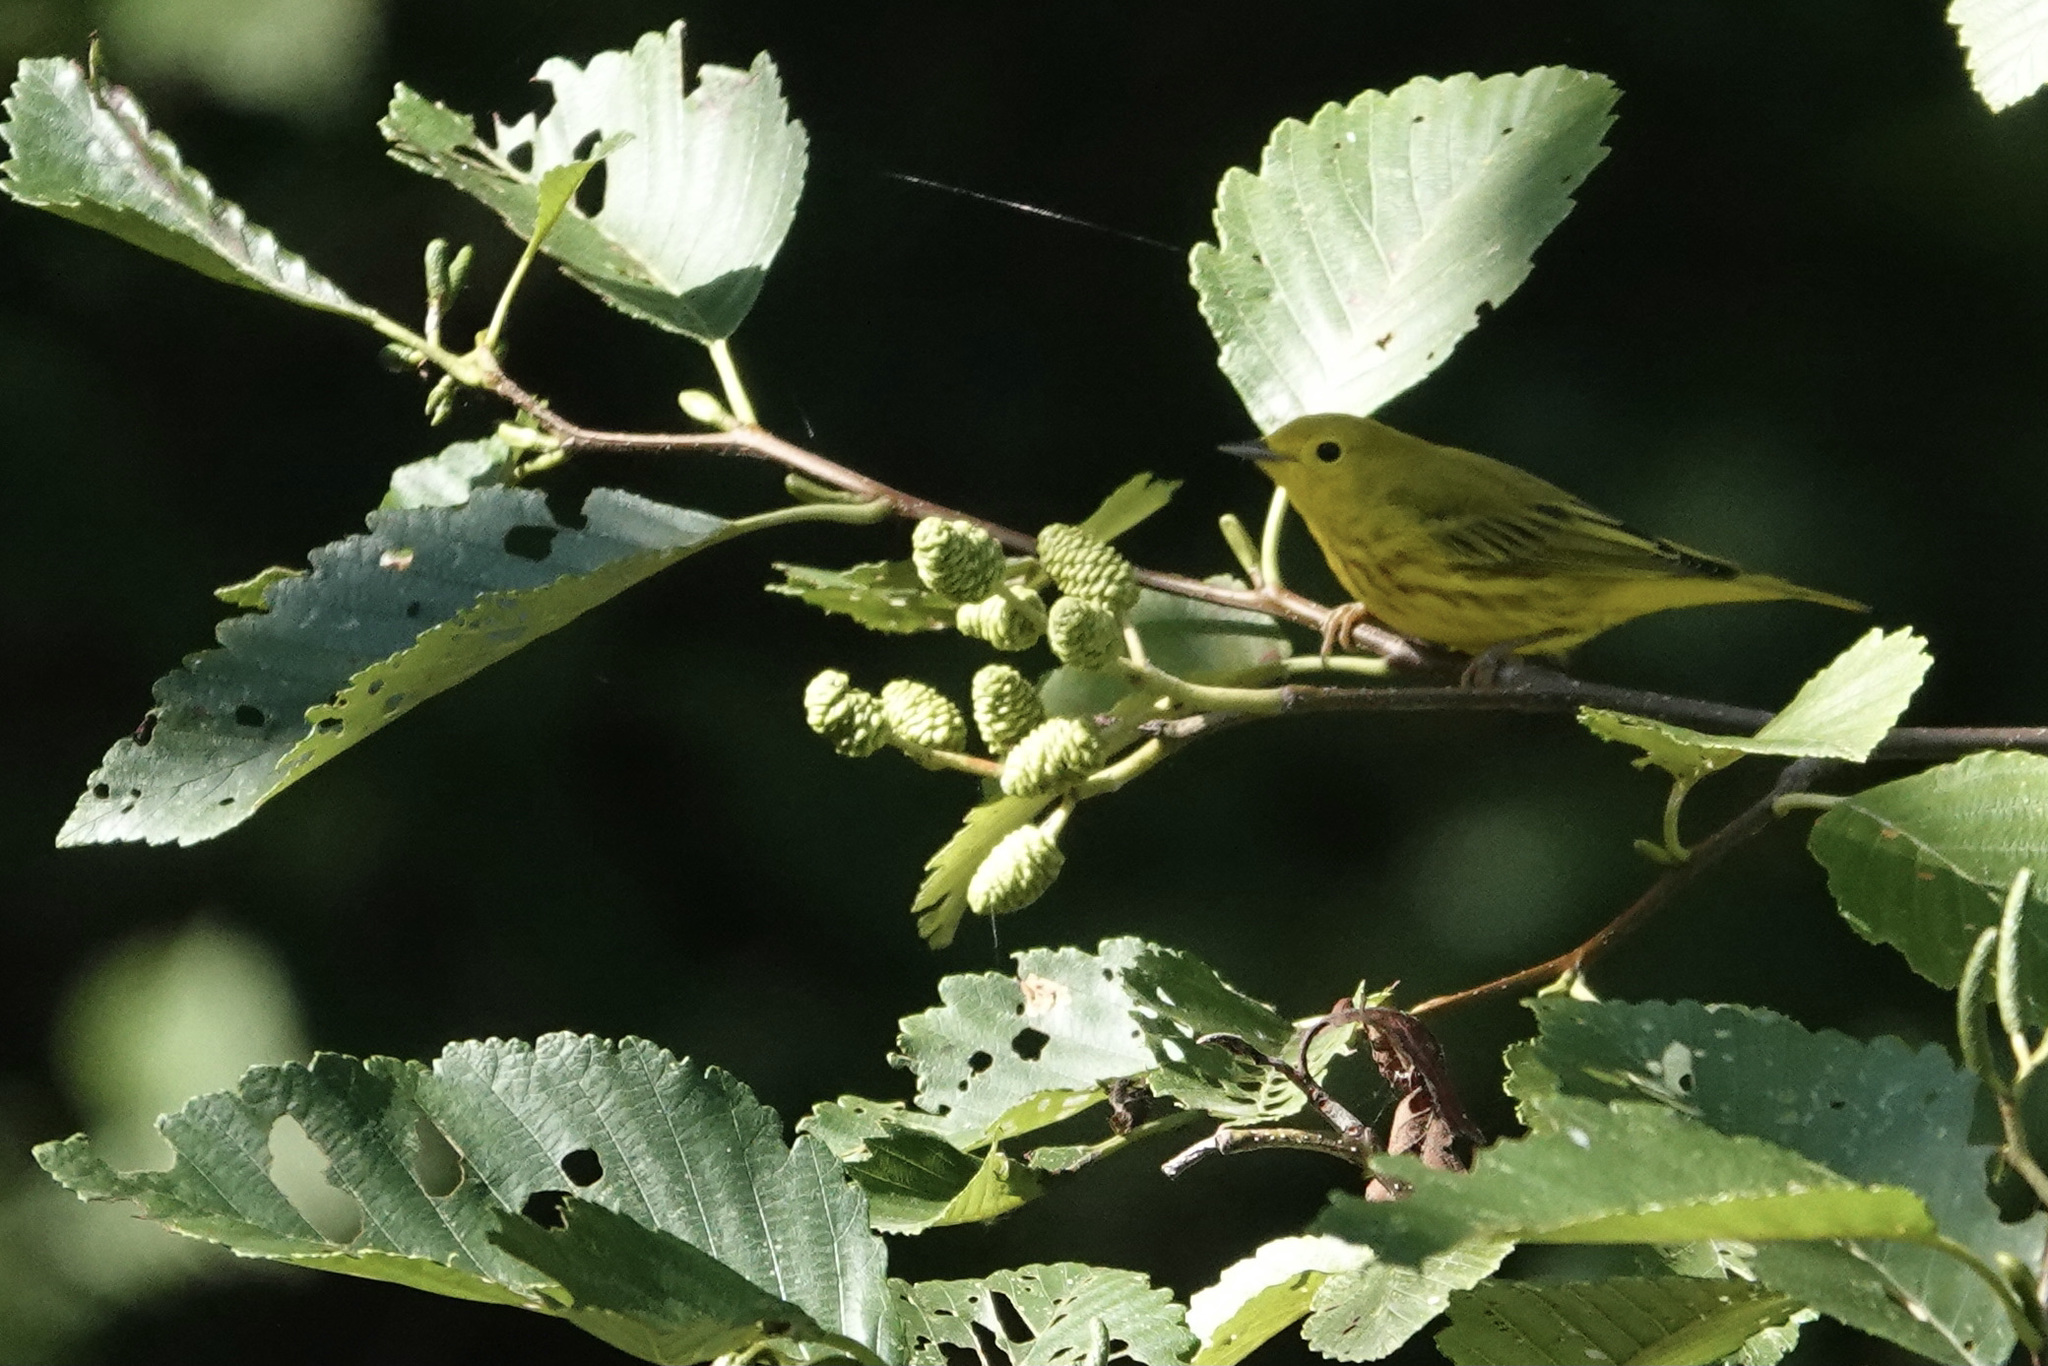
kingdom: Animalia
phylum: Chordata
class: Aves
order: Passeriformes
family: Parulidae
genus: Setophaga
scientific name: Setophaga petechia
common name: Yellow warbler
